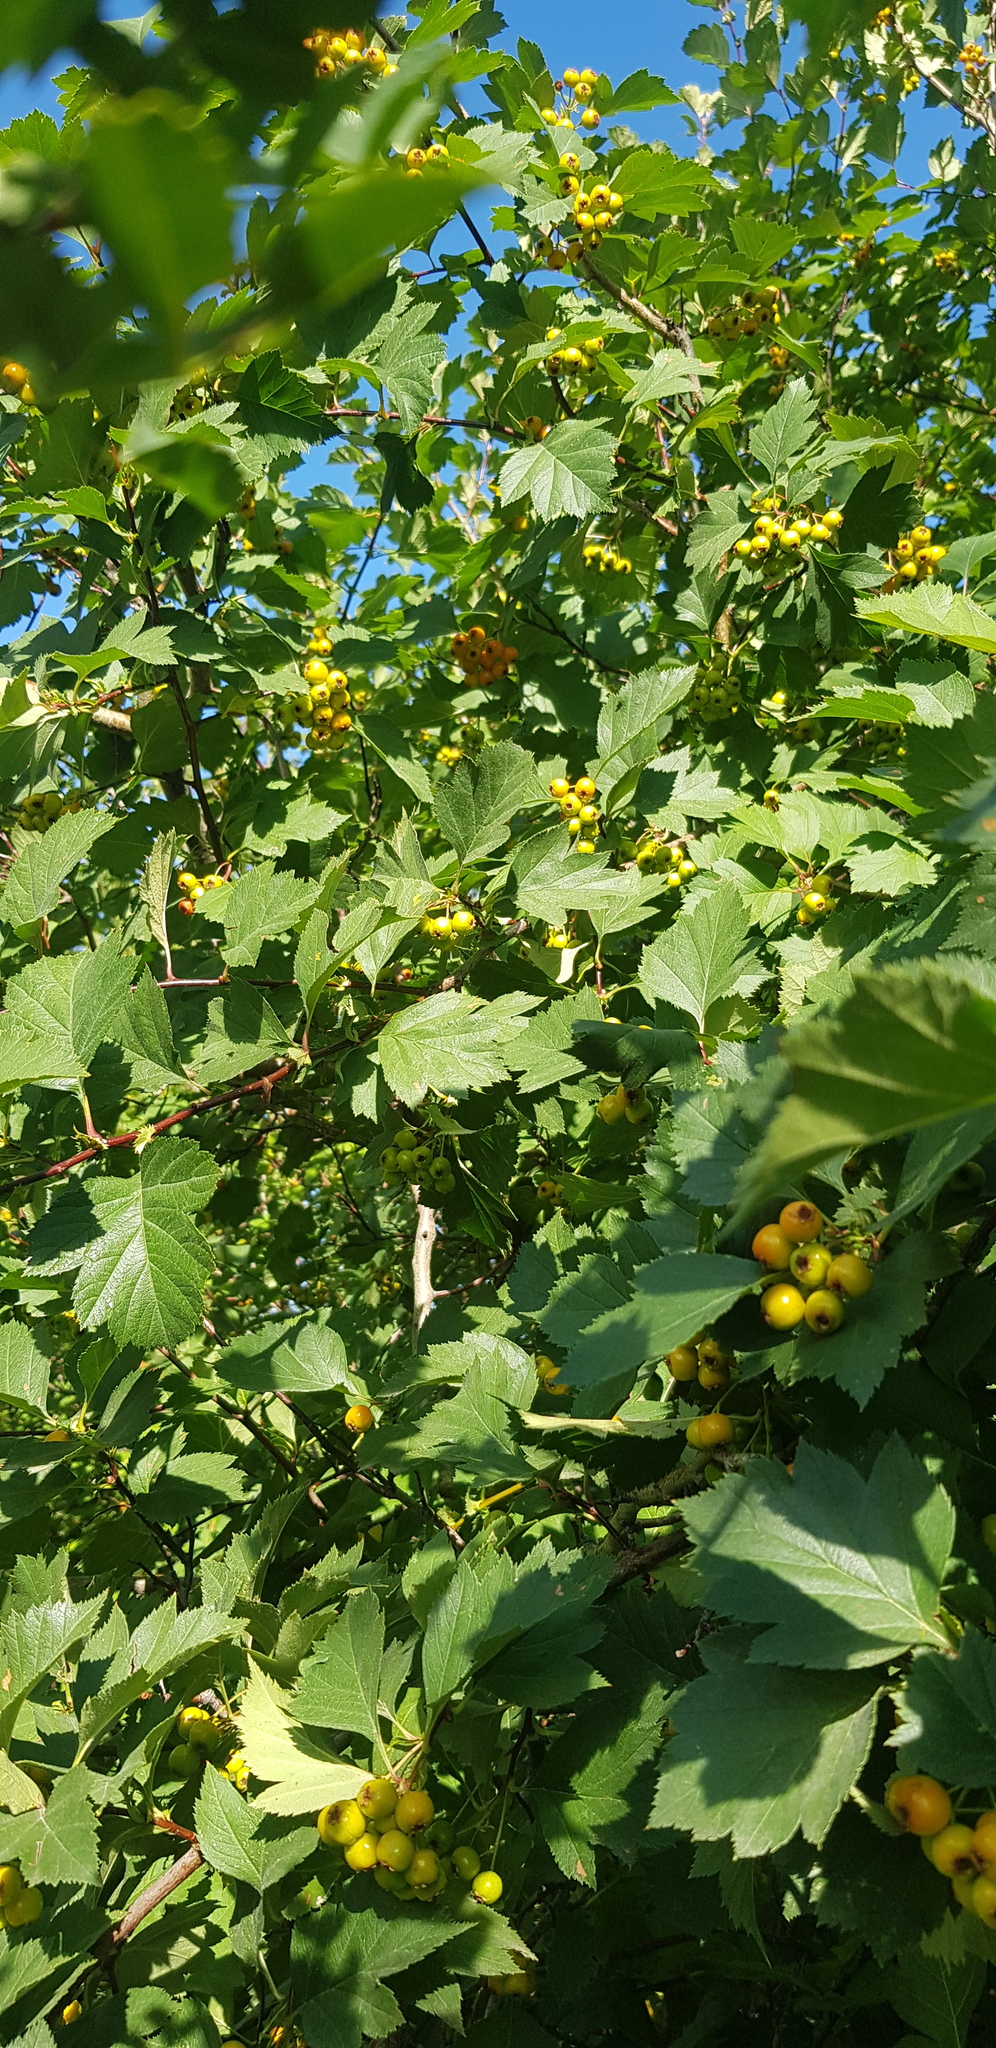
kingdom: Plantae
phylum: Tracheophyta
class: Magnoliopsida
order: Rosales
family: Rosaceae
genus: Crataegus
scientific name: Crataegus sanguinea
